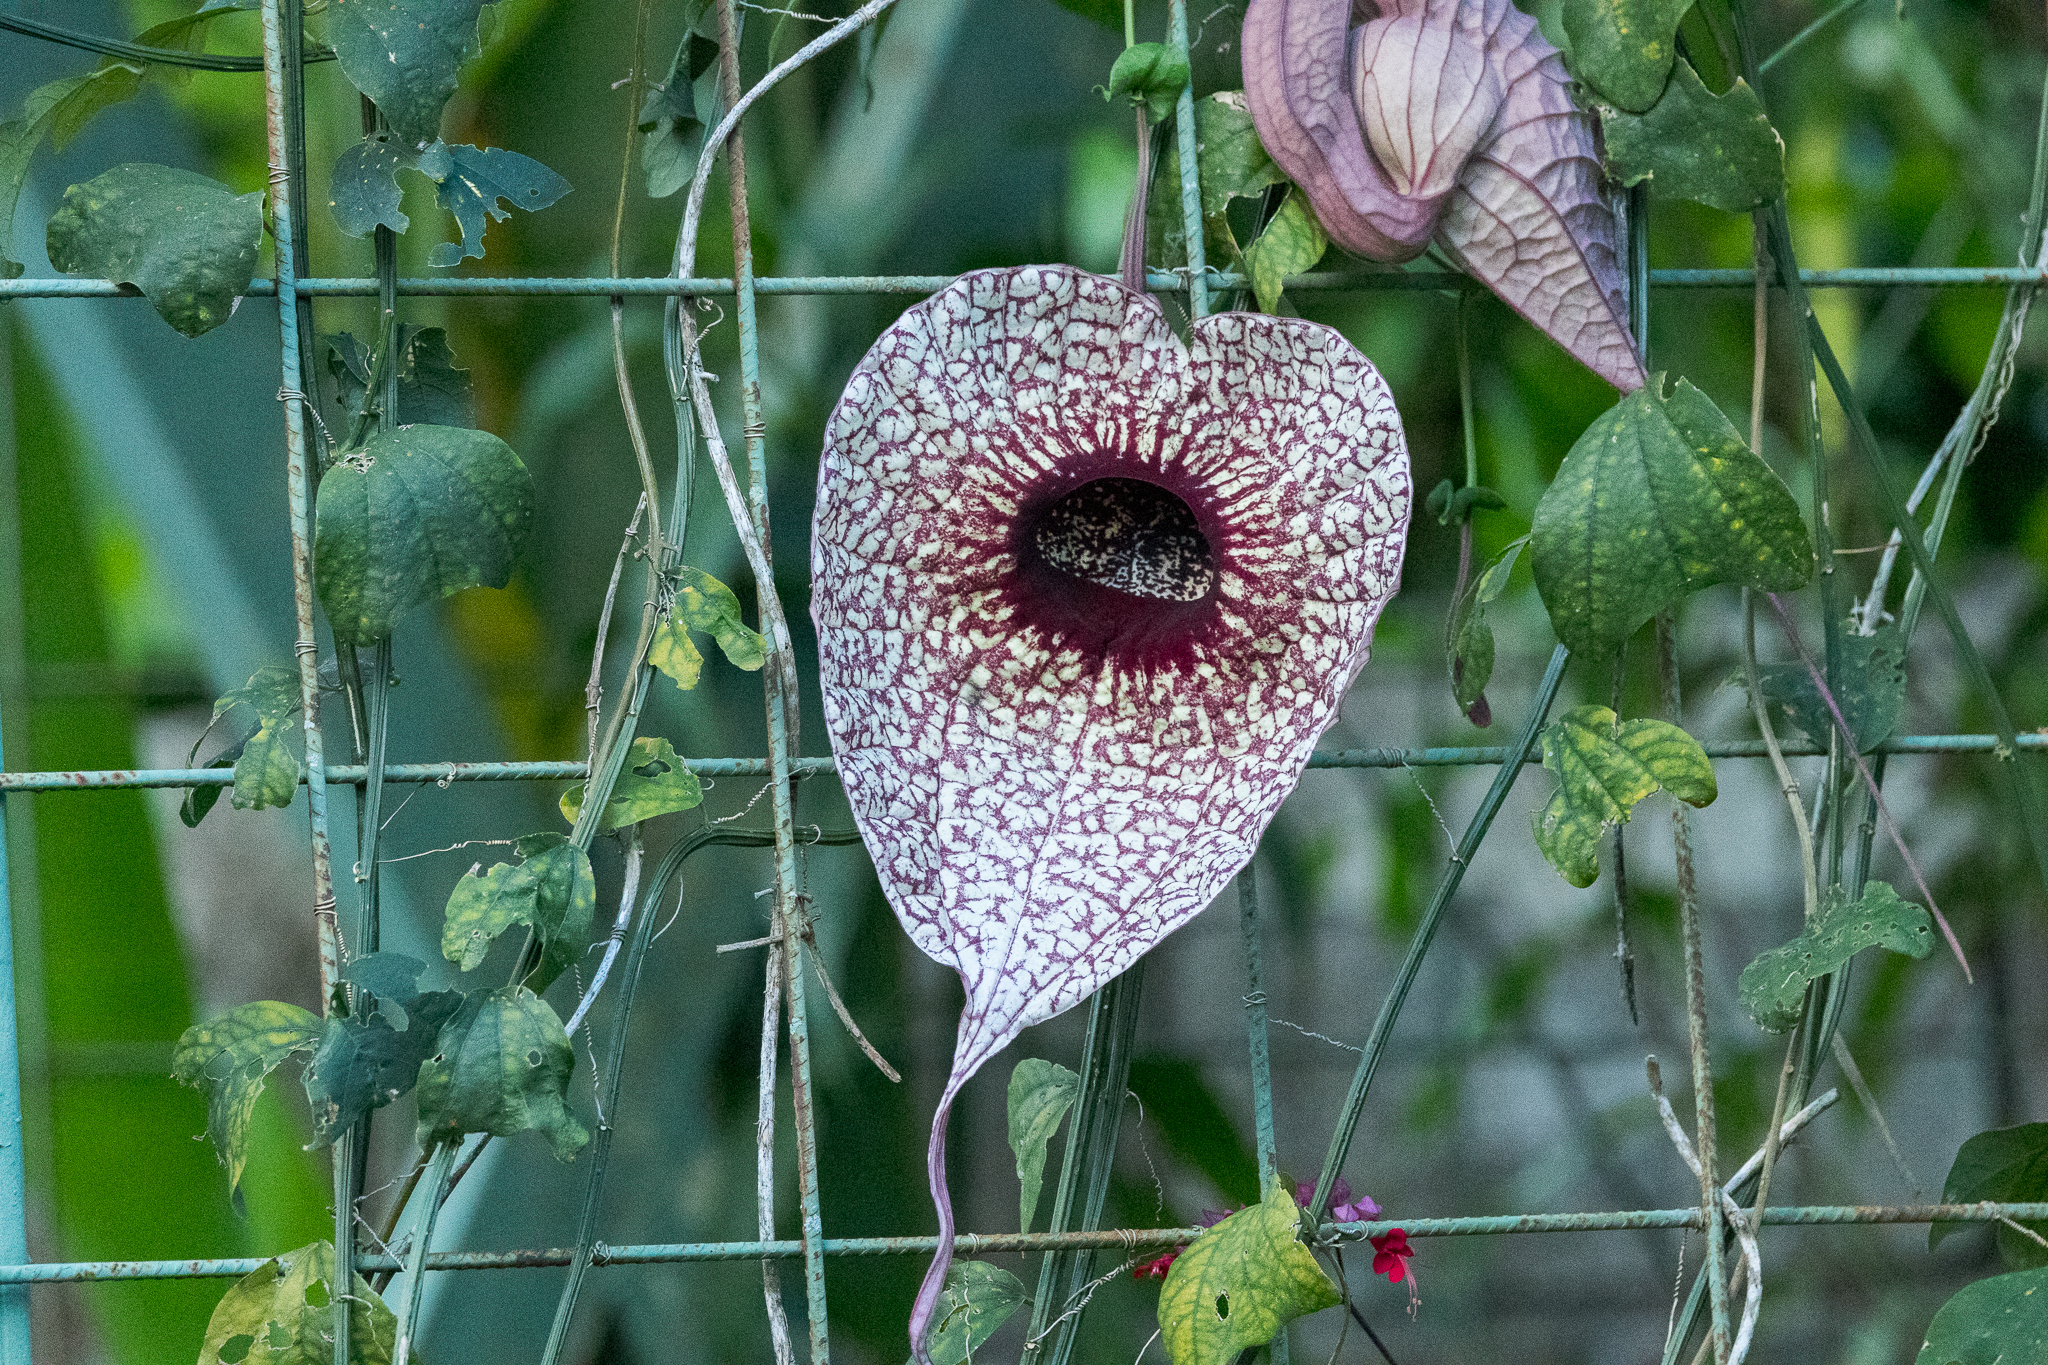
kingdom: Plantae
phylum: Tracheophyta
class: Magnoliopsida
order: Piperales
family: Aristolochiaceae
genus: Aristolochia
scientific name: Aristolochia grandiflora
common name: Pelicanflower
